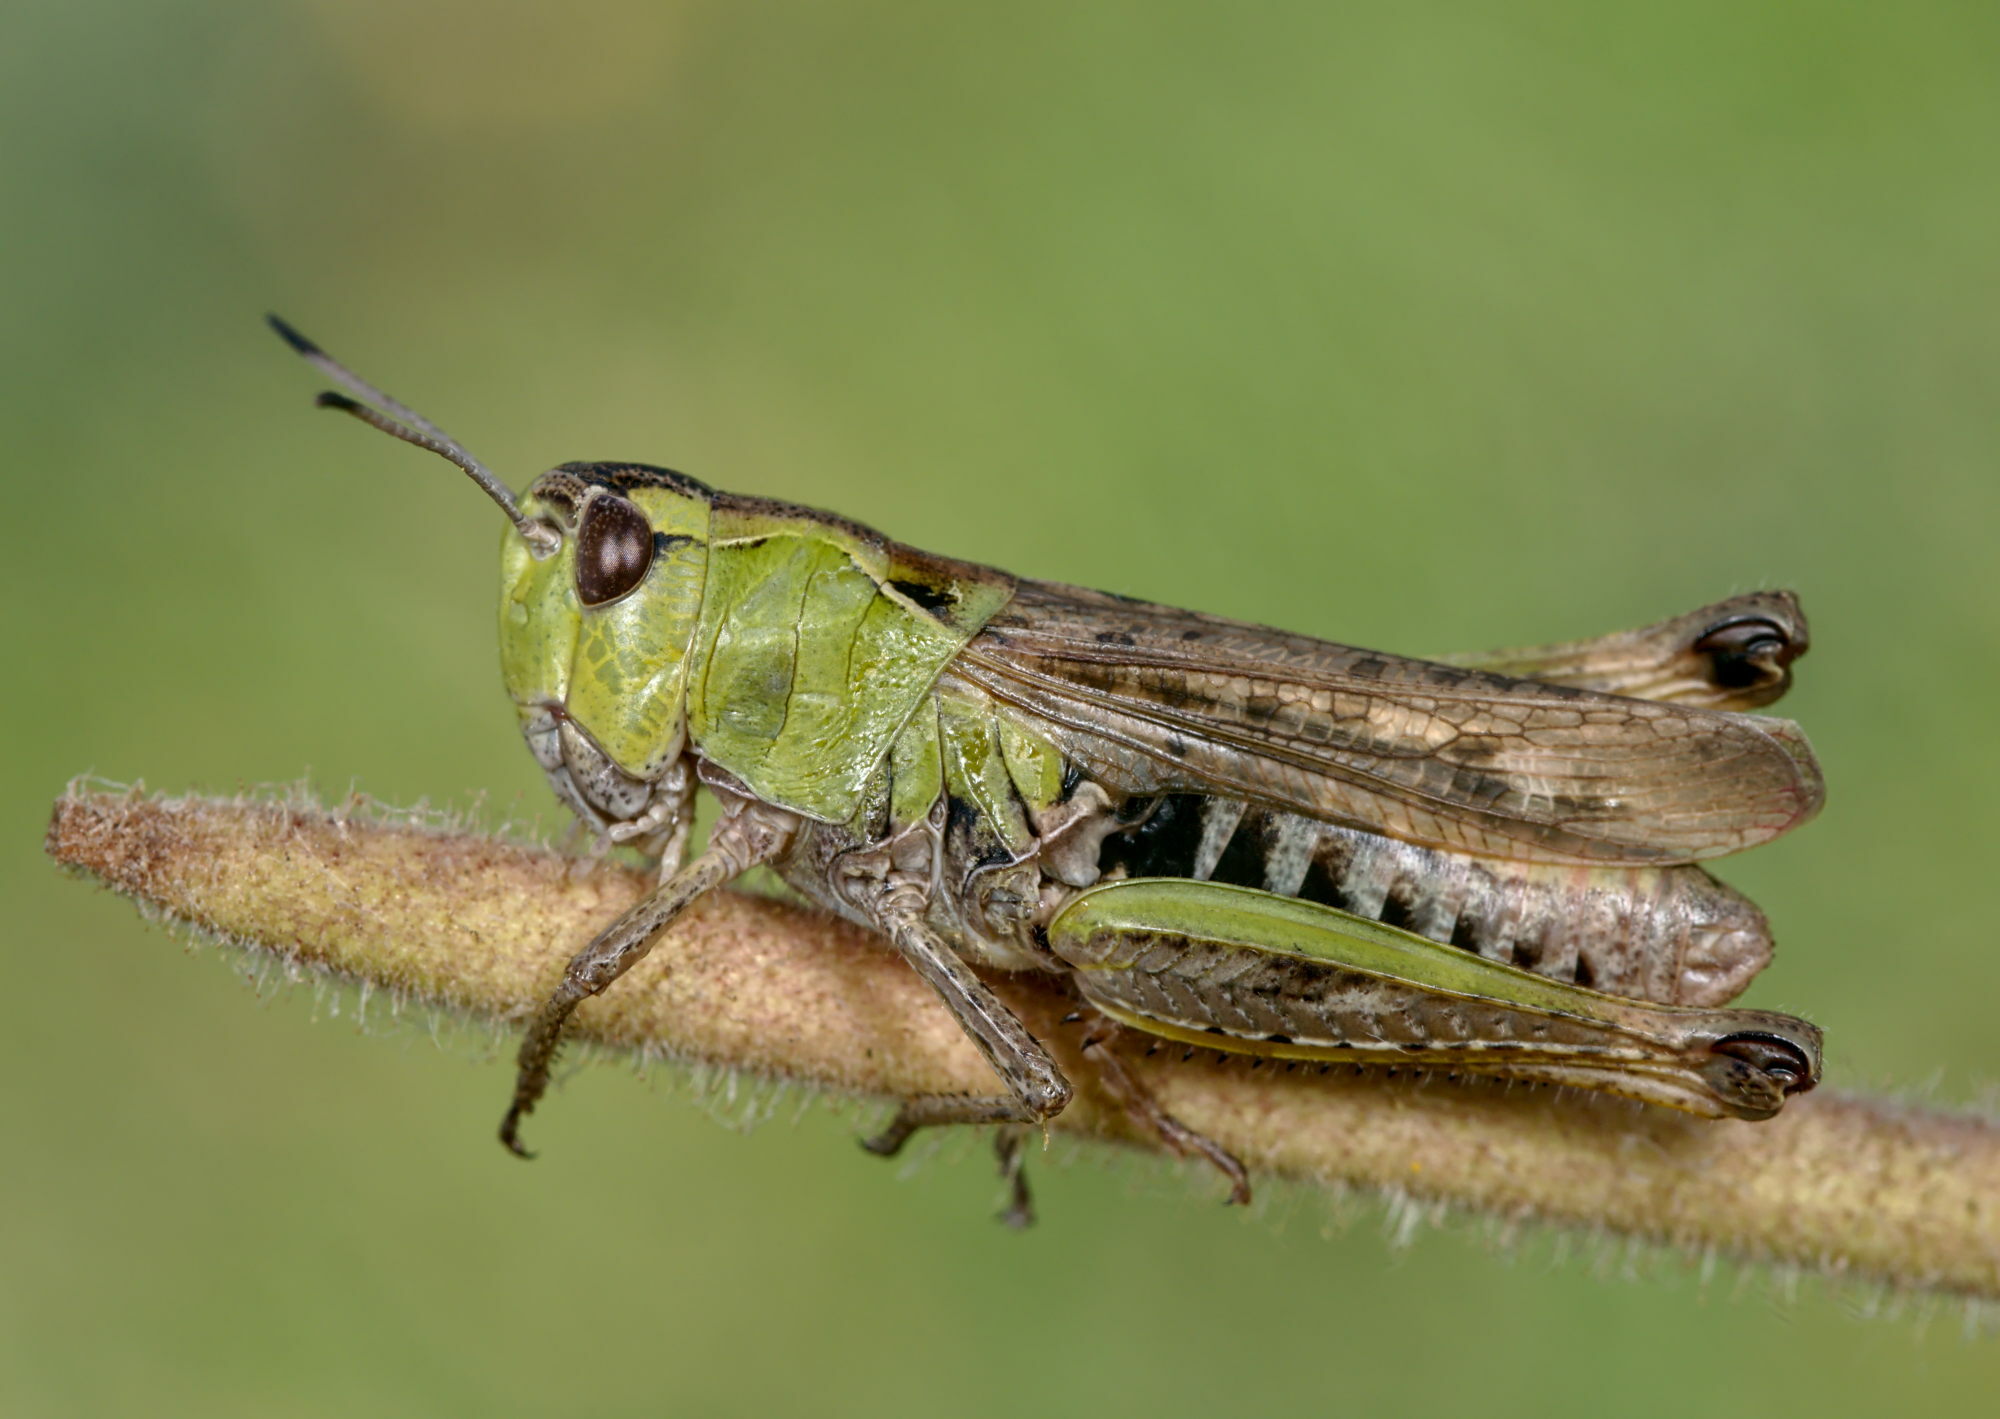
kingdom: Animalia
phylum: Arthropoda
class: Insecta
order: Orthoptera
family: Acrididae
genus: Gomphocerus
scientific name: Gomphocerus sibiricus
